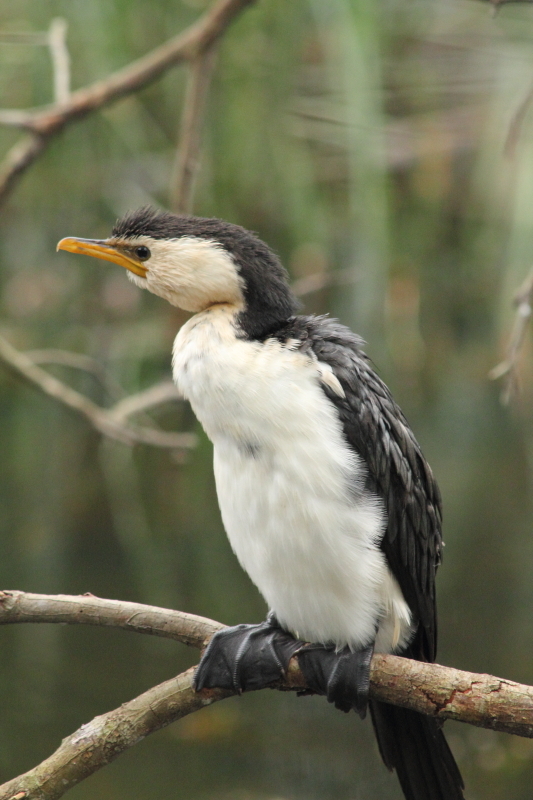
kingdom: Animalia
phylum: Chordata
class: Aves
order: Suliformes
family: Phalacrocoracidae
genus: Microcarbo
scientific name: Microcarbo melanoleucos
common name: Little pied cormorant
